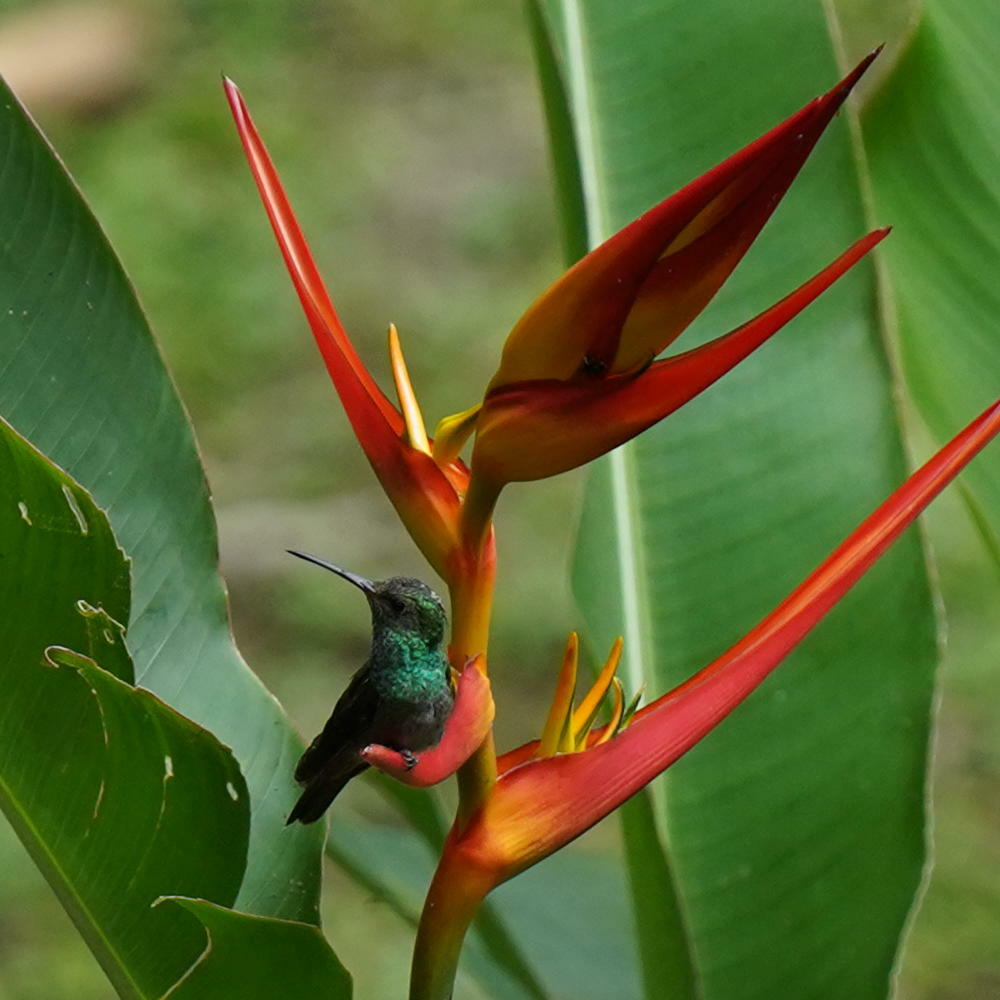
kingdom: Animalia
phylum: Chordata
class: Aves
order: Apodiformes
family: Trochilidae
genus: Amazilia
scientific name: Amazilia tzacatl
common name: Rufous-tailed hummingbird
